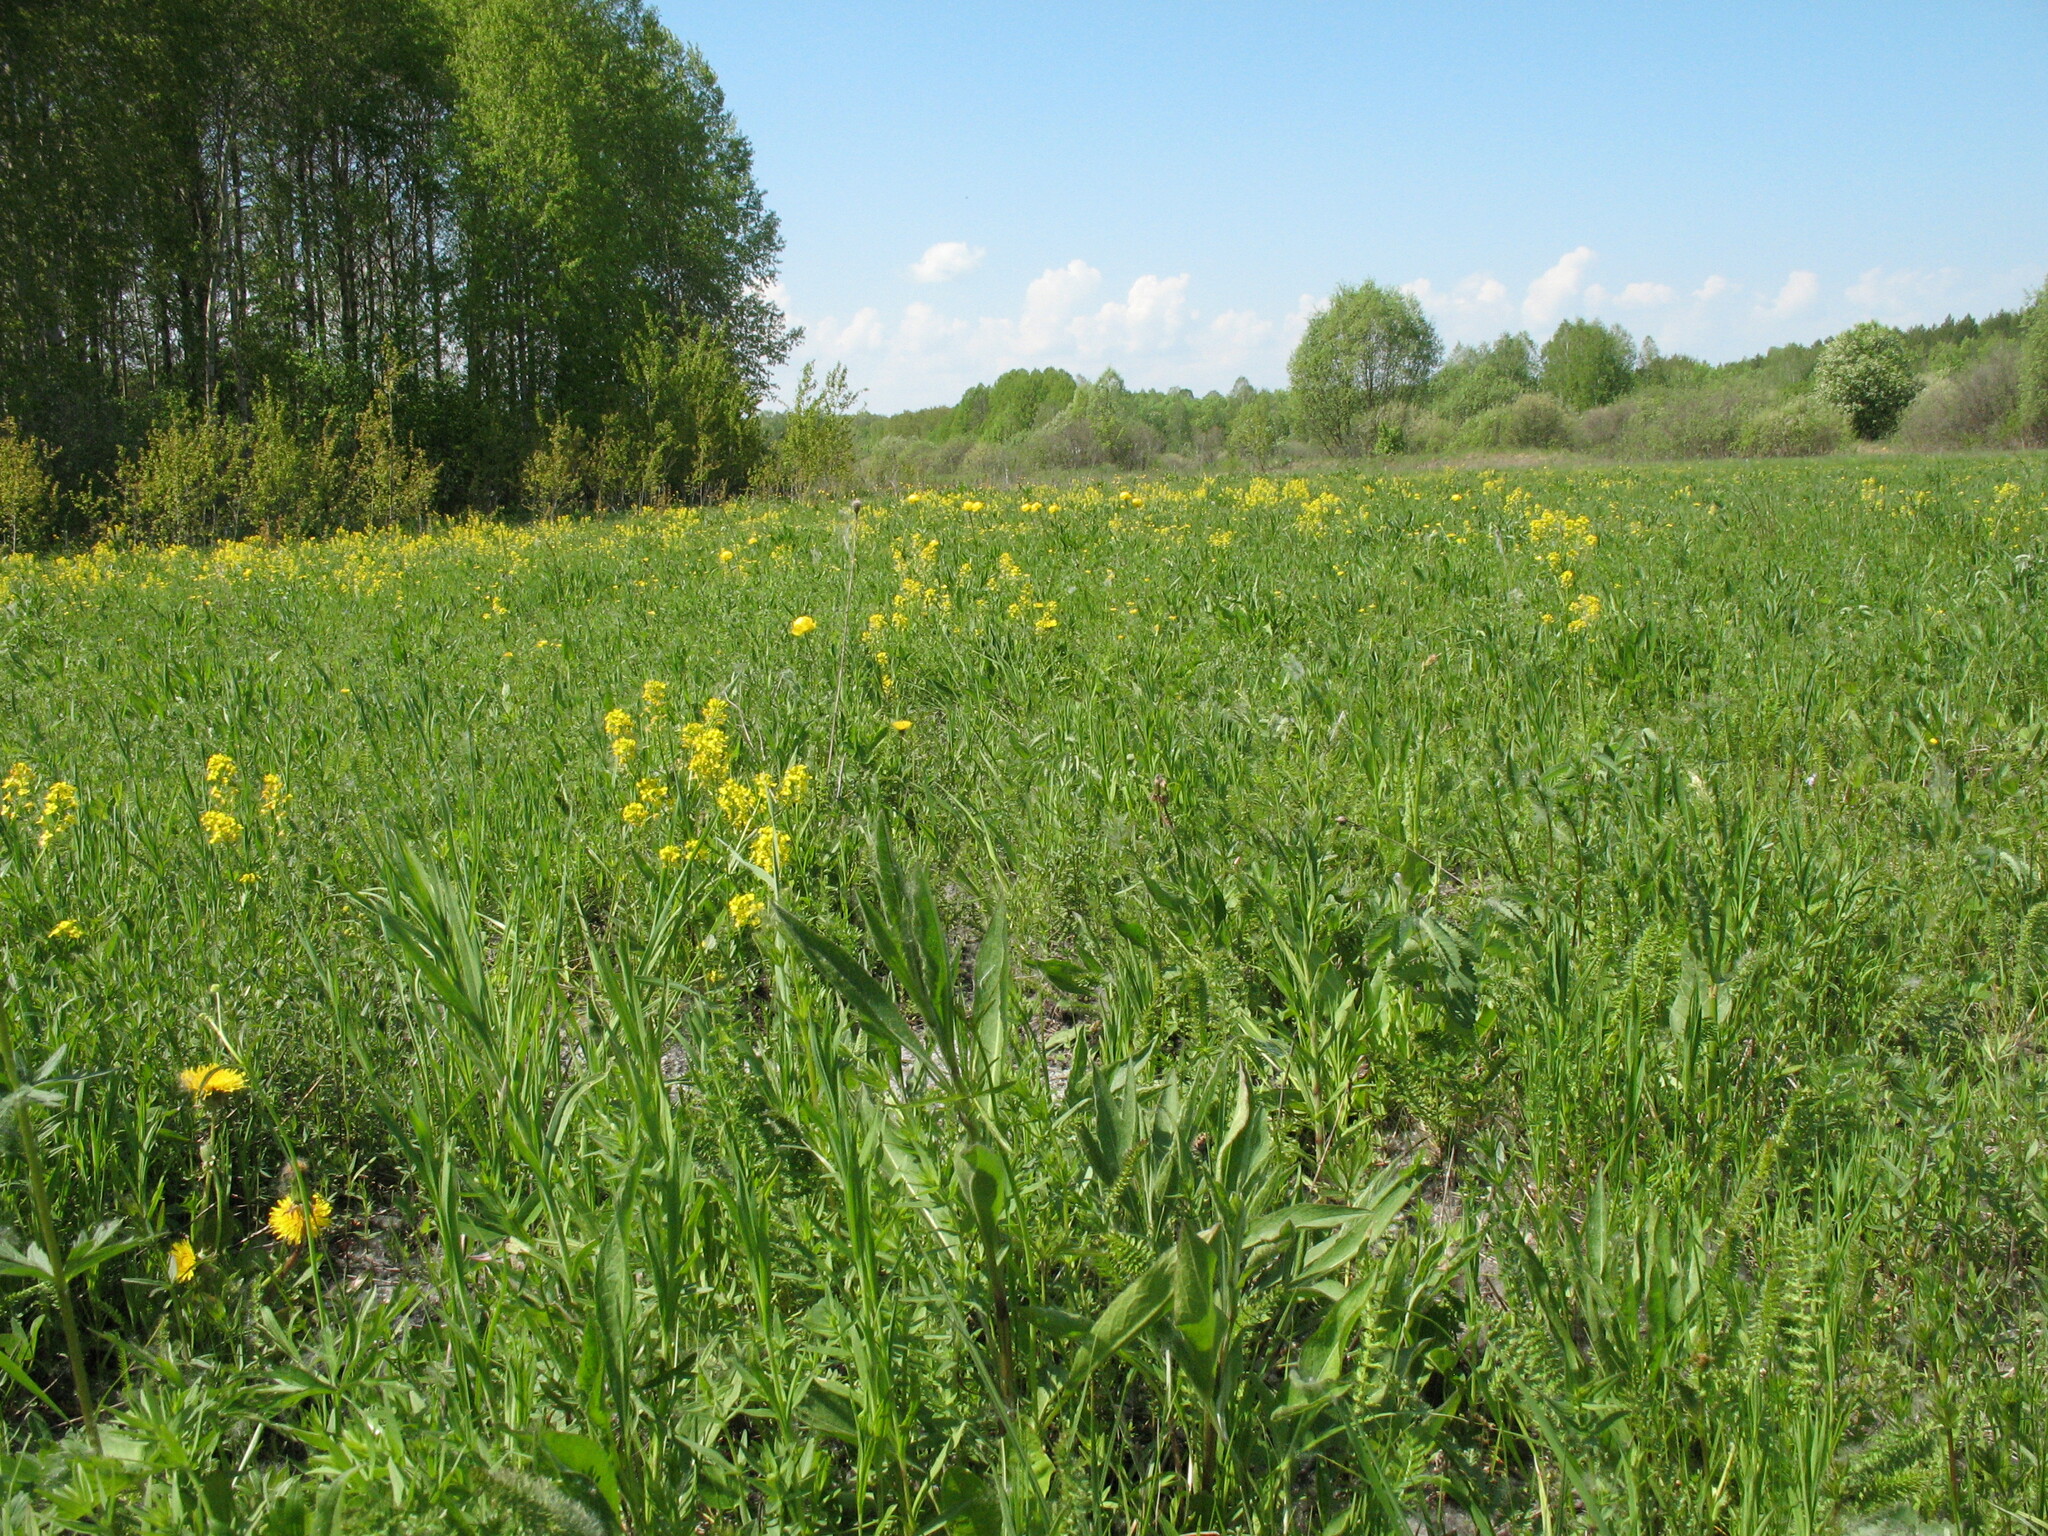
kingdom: Plantae
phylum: Tracheophyta
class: Magnoliopsida
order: Brassicales
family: Brassicaceae
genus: Barbarea
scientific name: Barbarea vulgaris
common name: Cressy-greens
